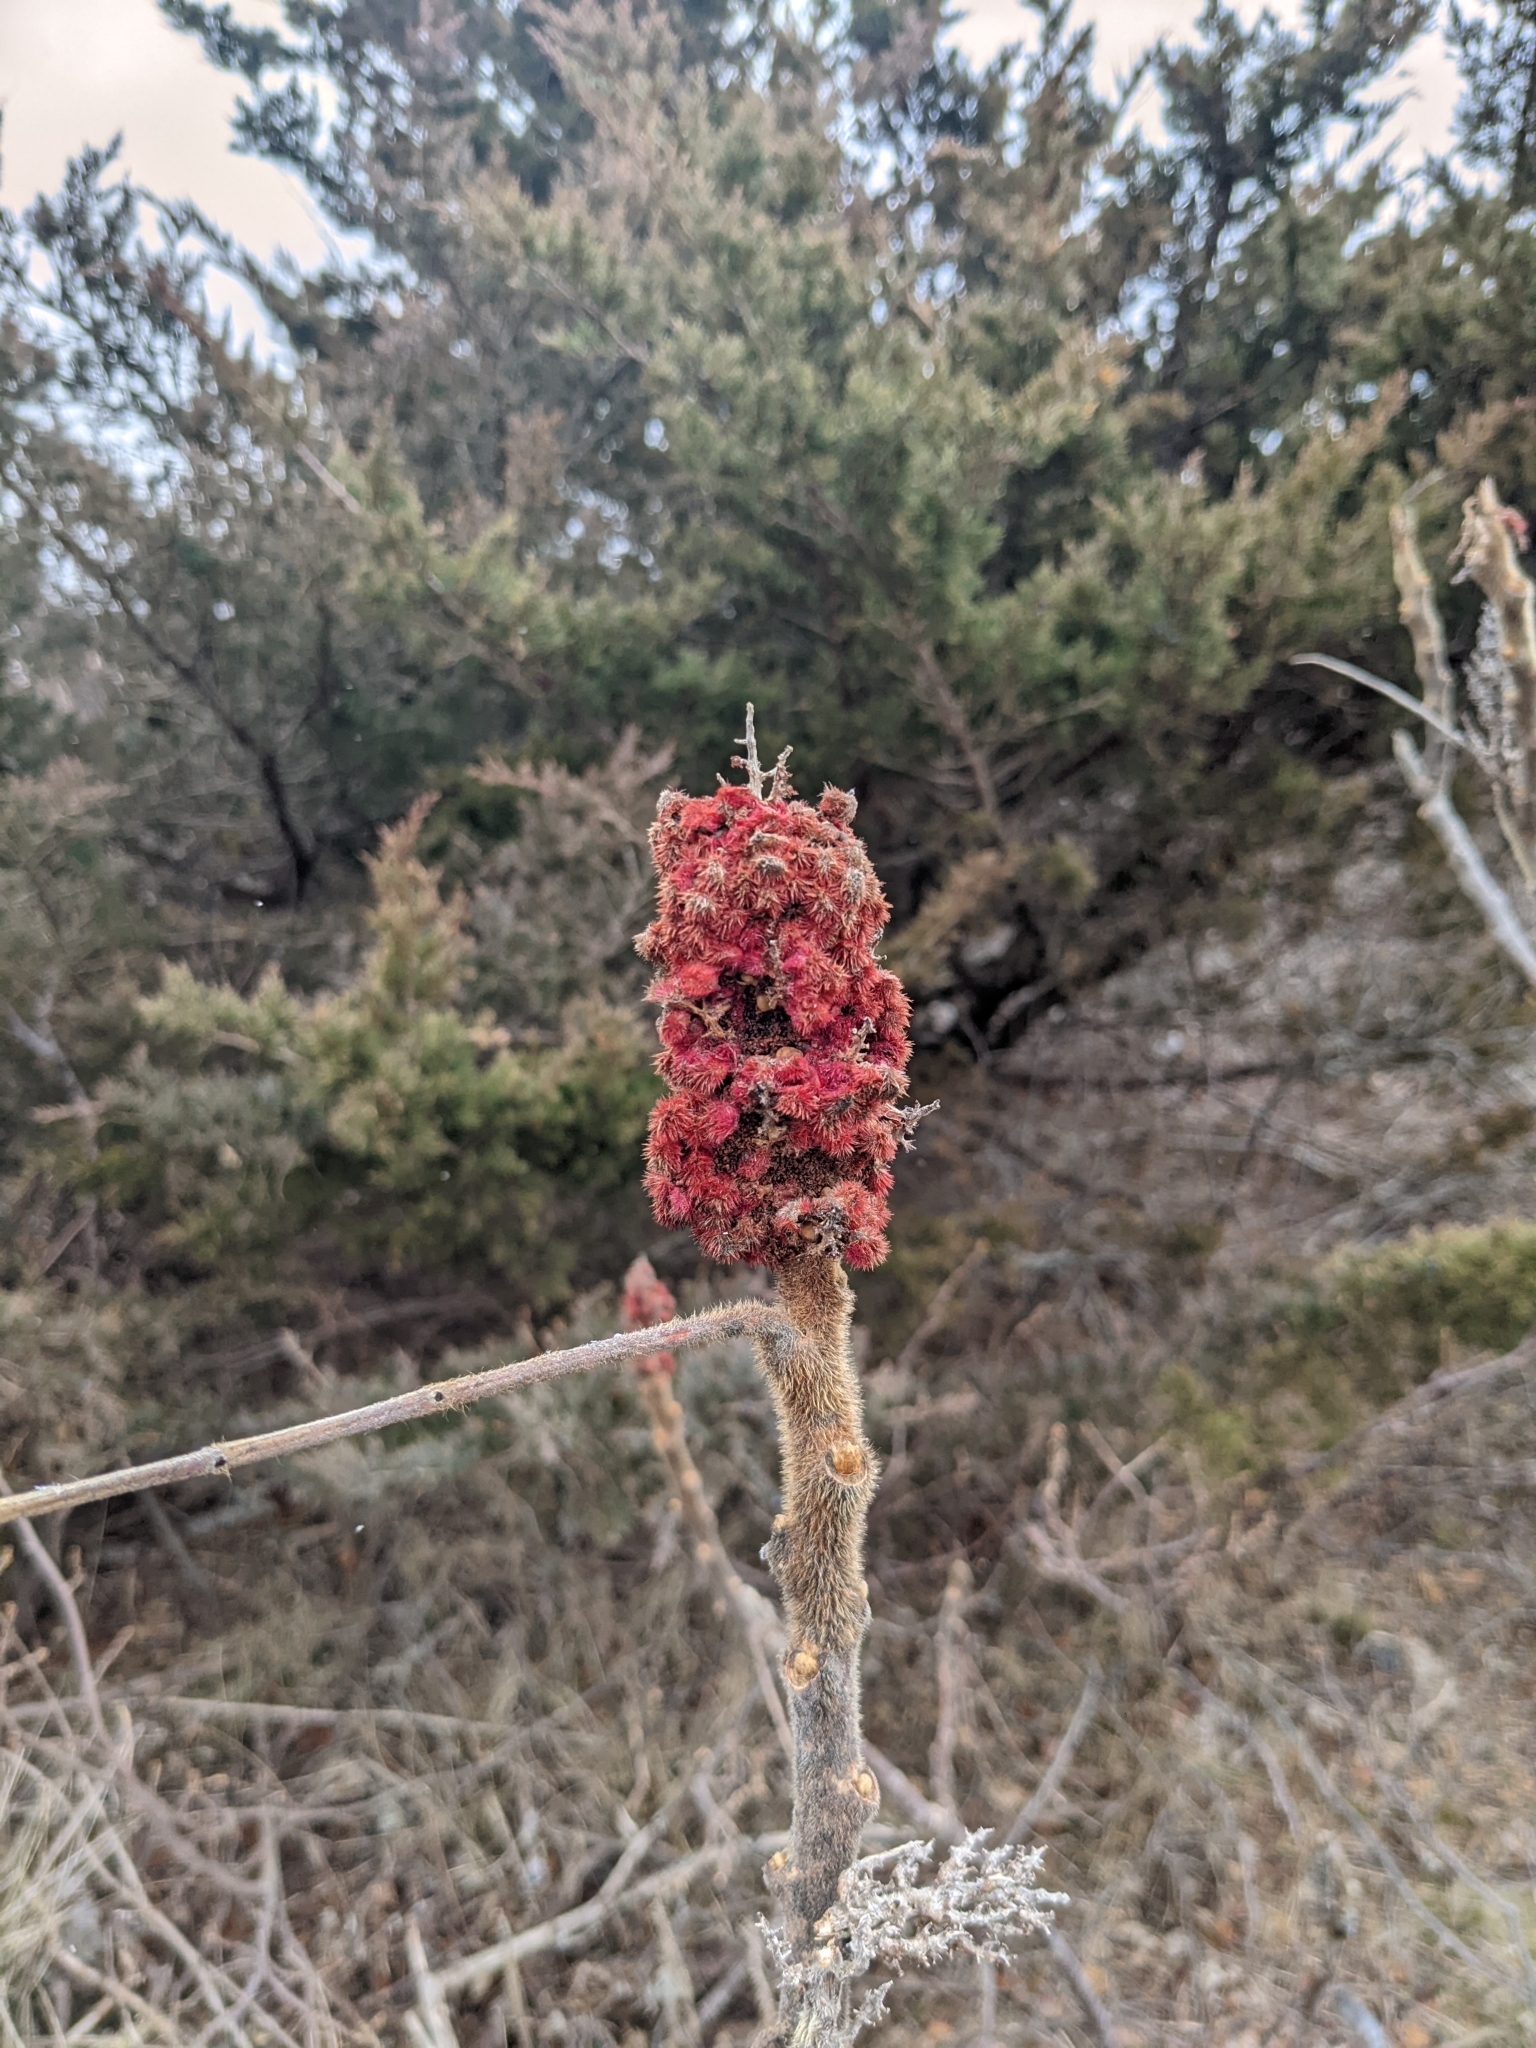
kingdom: Plantae
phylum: Tracheophyta
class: Magnoliopsida
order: Sapindales
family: Anacardiaceae
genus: Rhus
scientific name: Rhus typhina
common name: Staghorn sumac
